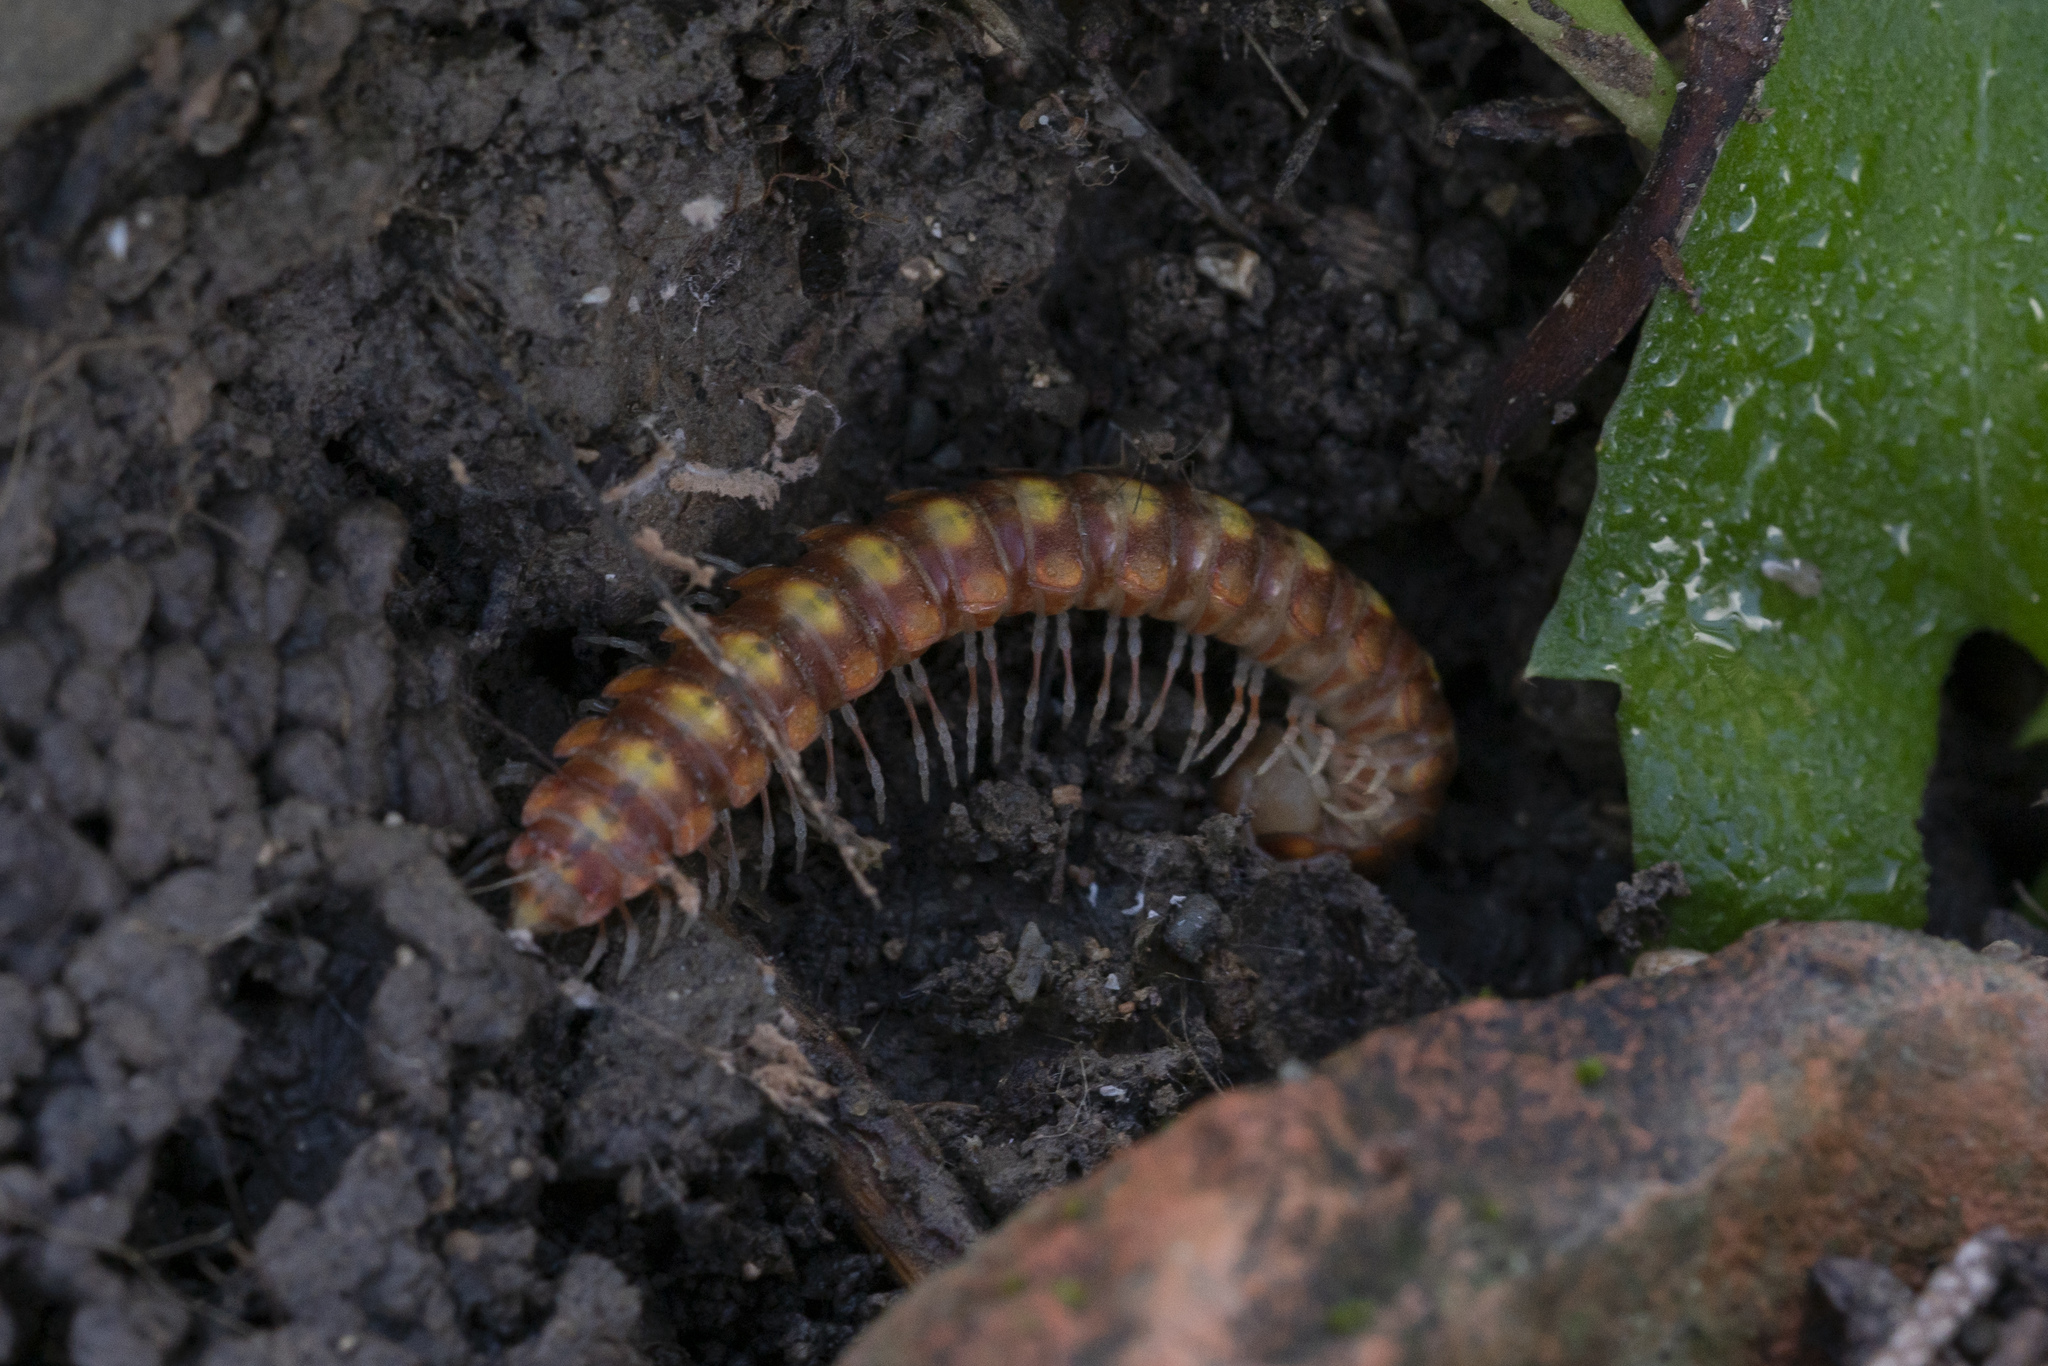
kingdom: Animalia
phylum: Arthropoda
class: Diplopoda
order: Polydesmida
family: Xystodesmidae
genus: Melaphe
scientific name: Melaphe vestita
